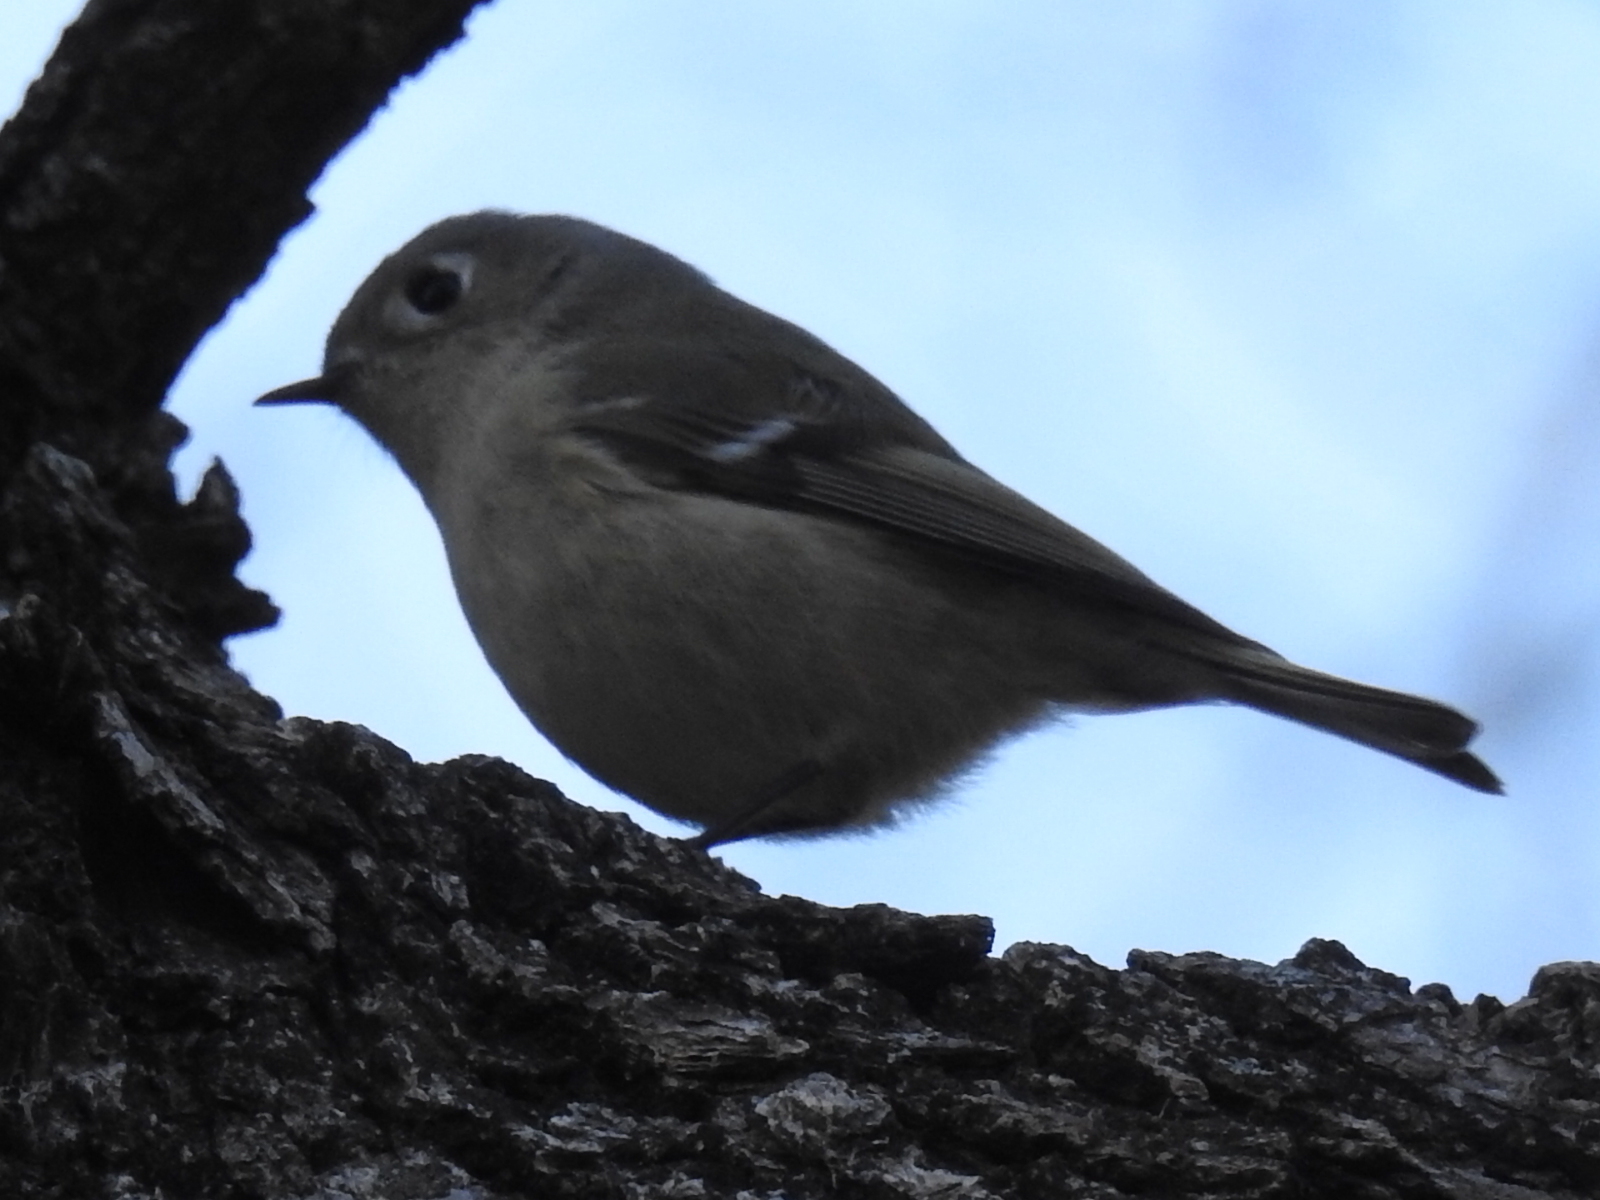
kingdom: Animalia
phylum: Chordata
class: Aves
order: Passeriformes
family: Regulidae
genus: Regulus
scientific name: Regulus calendula
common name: Ruby-crowned kinglet
